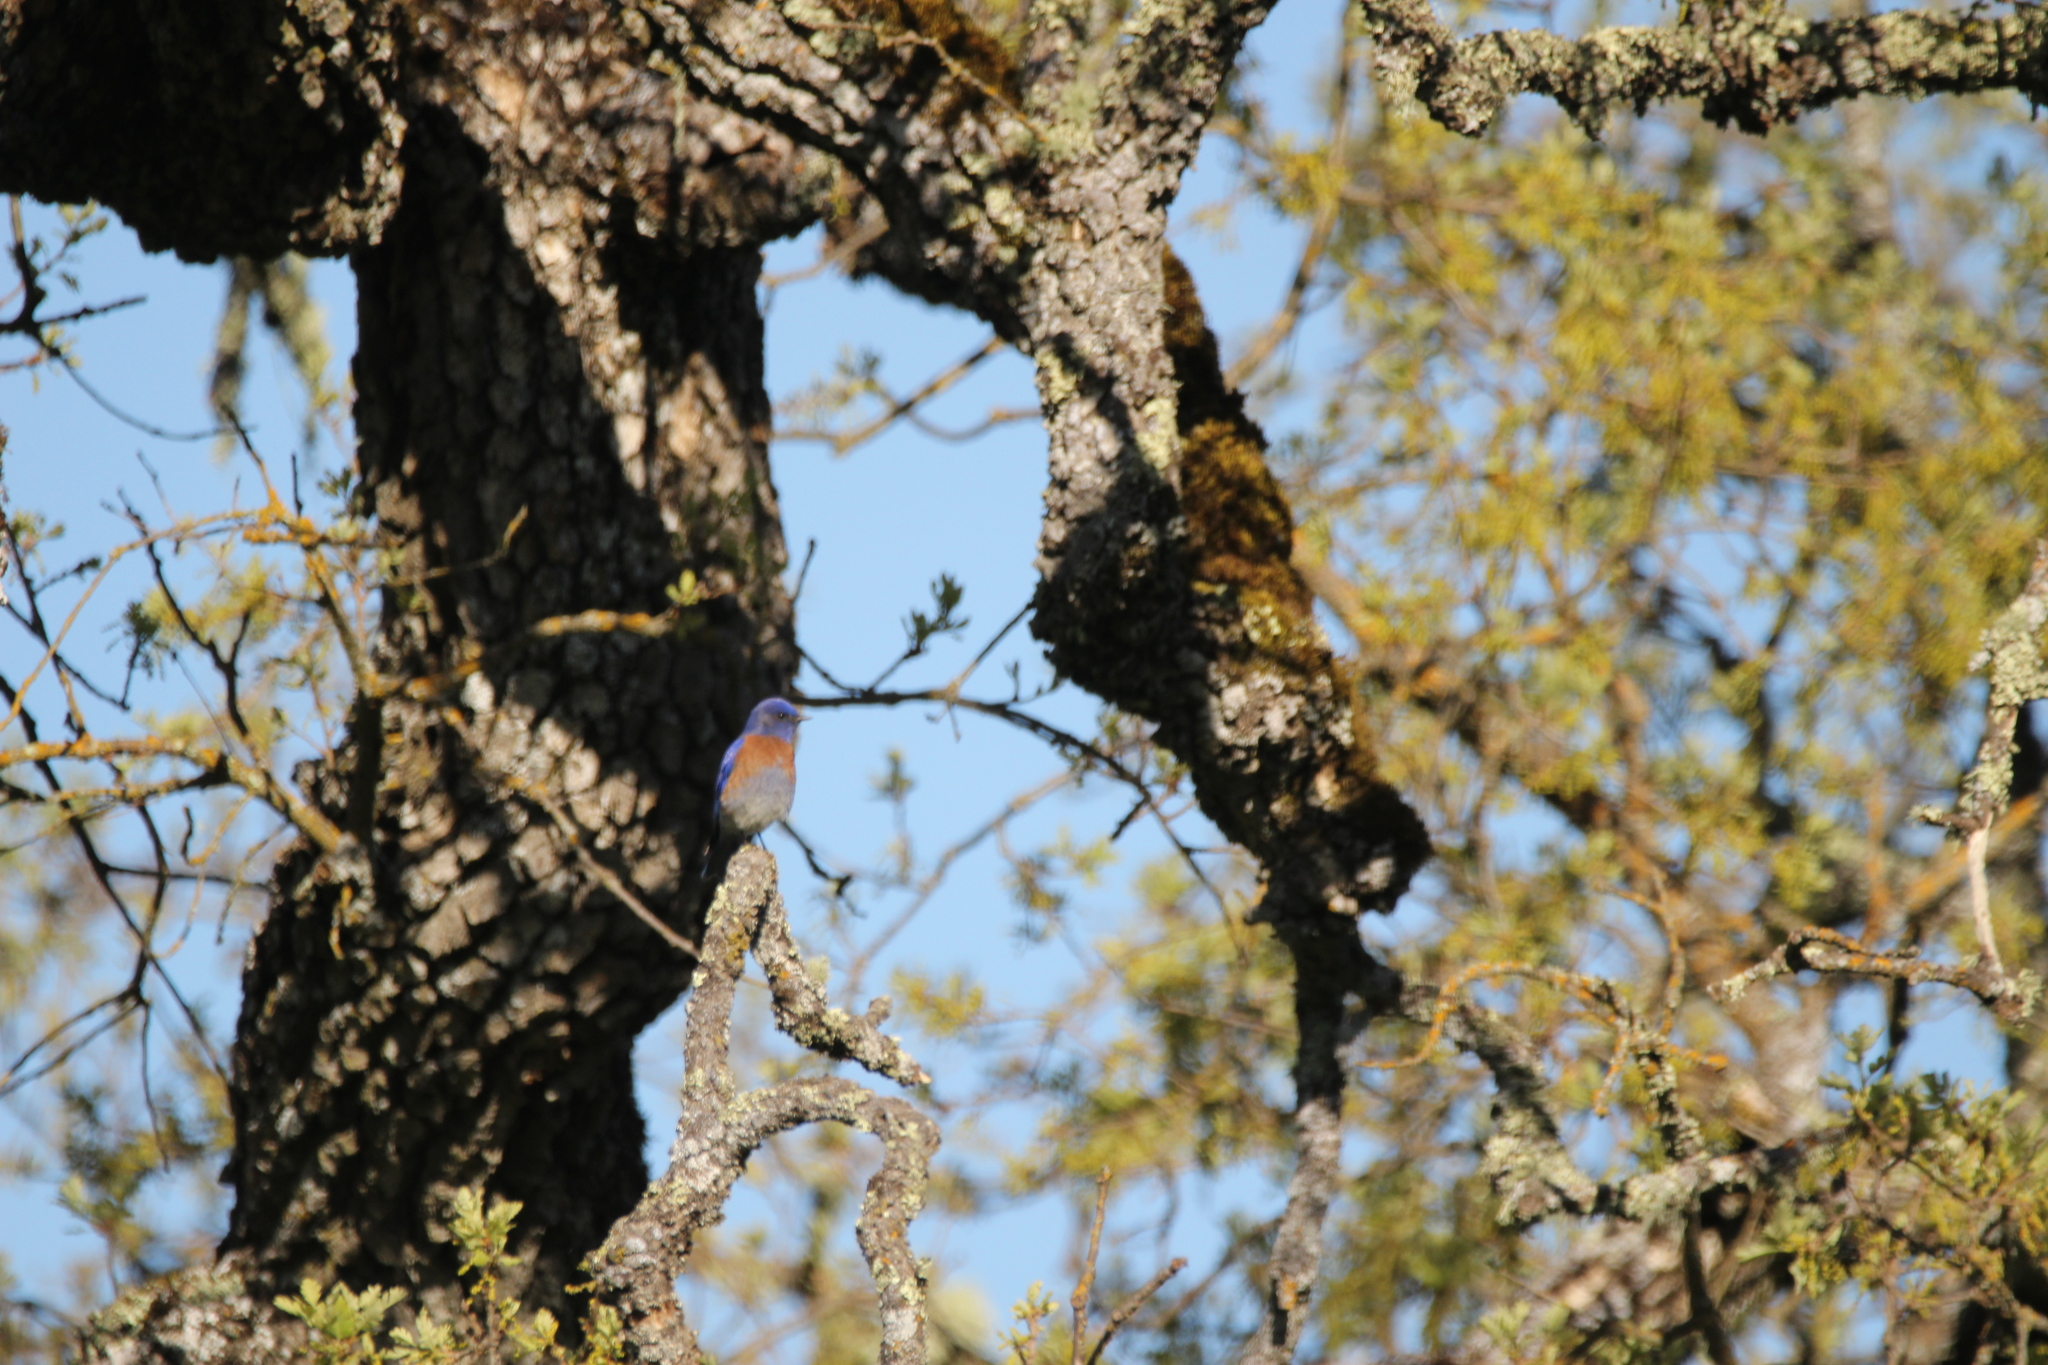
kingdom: Animalia
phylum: Chordata
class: Aves
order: Passeriformes
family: Turdidae
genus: Sialia
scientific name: Sialia mexicana
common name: Western bluebird
